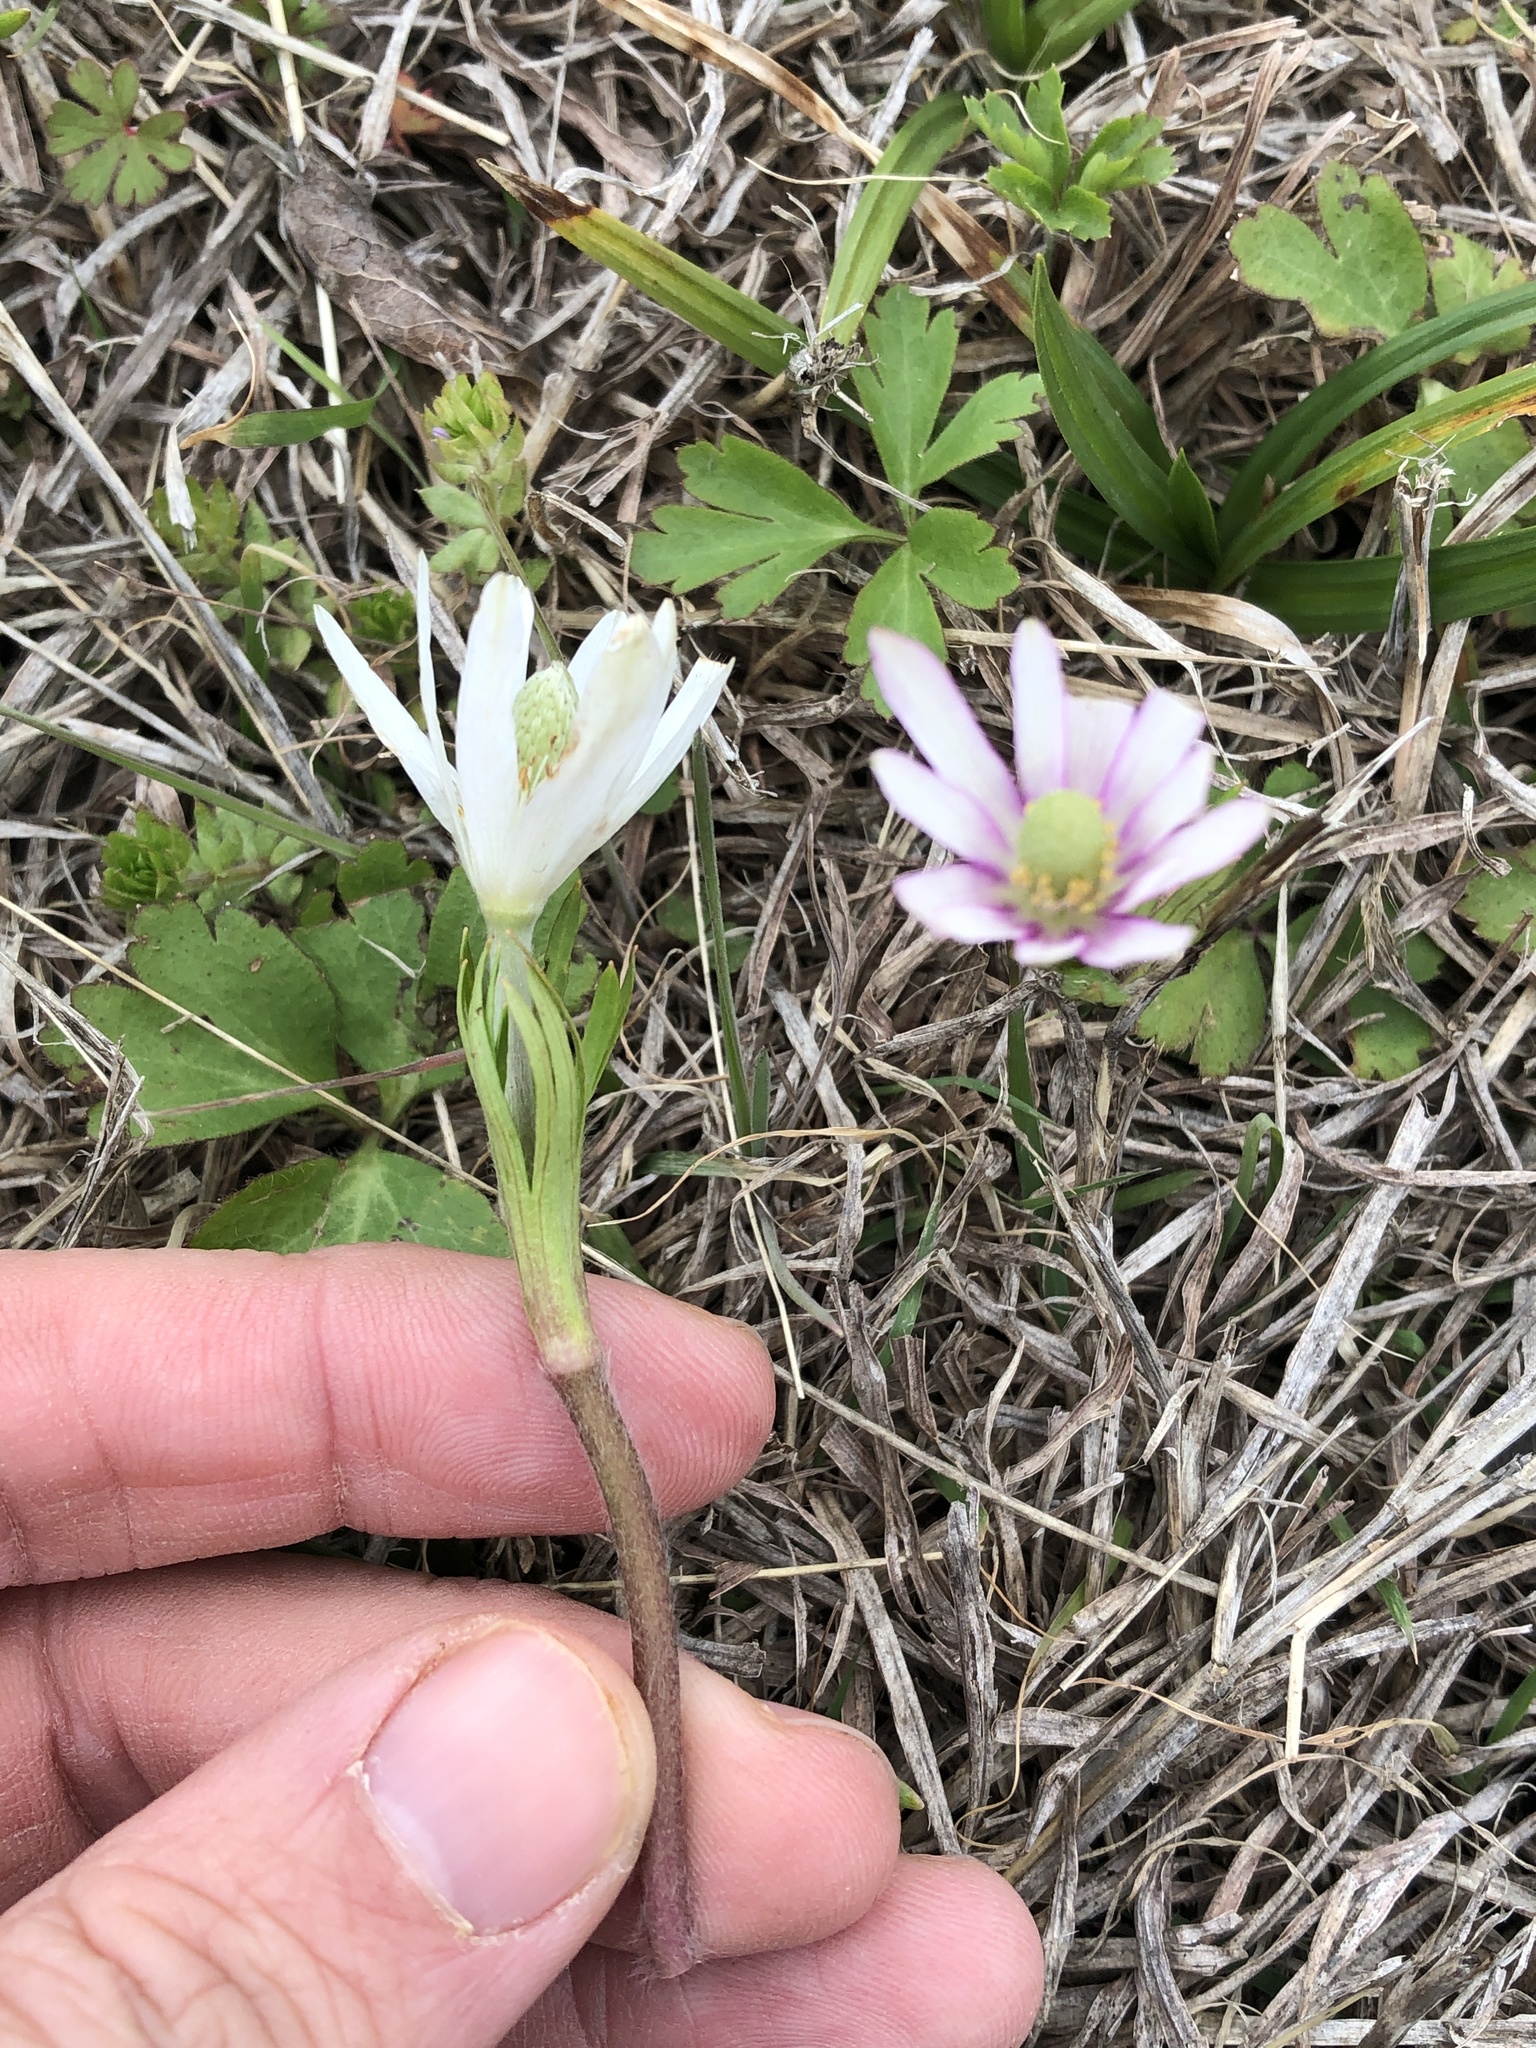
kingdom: Plantae
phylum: Tracheophyta
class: Magnoliopsida
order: Ranunculales
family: Ranunculaceae
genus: Anemone
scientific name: Anemone berlandieri
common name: Ten-petal anemone
